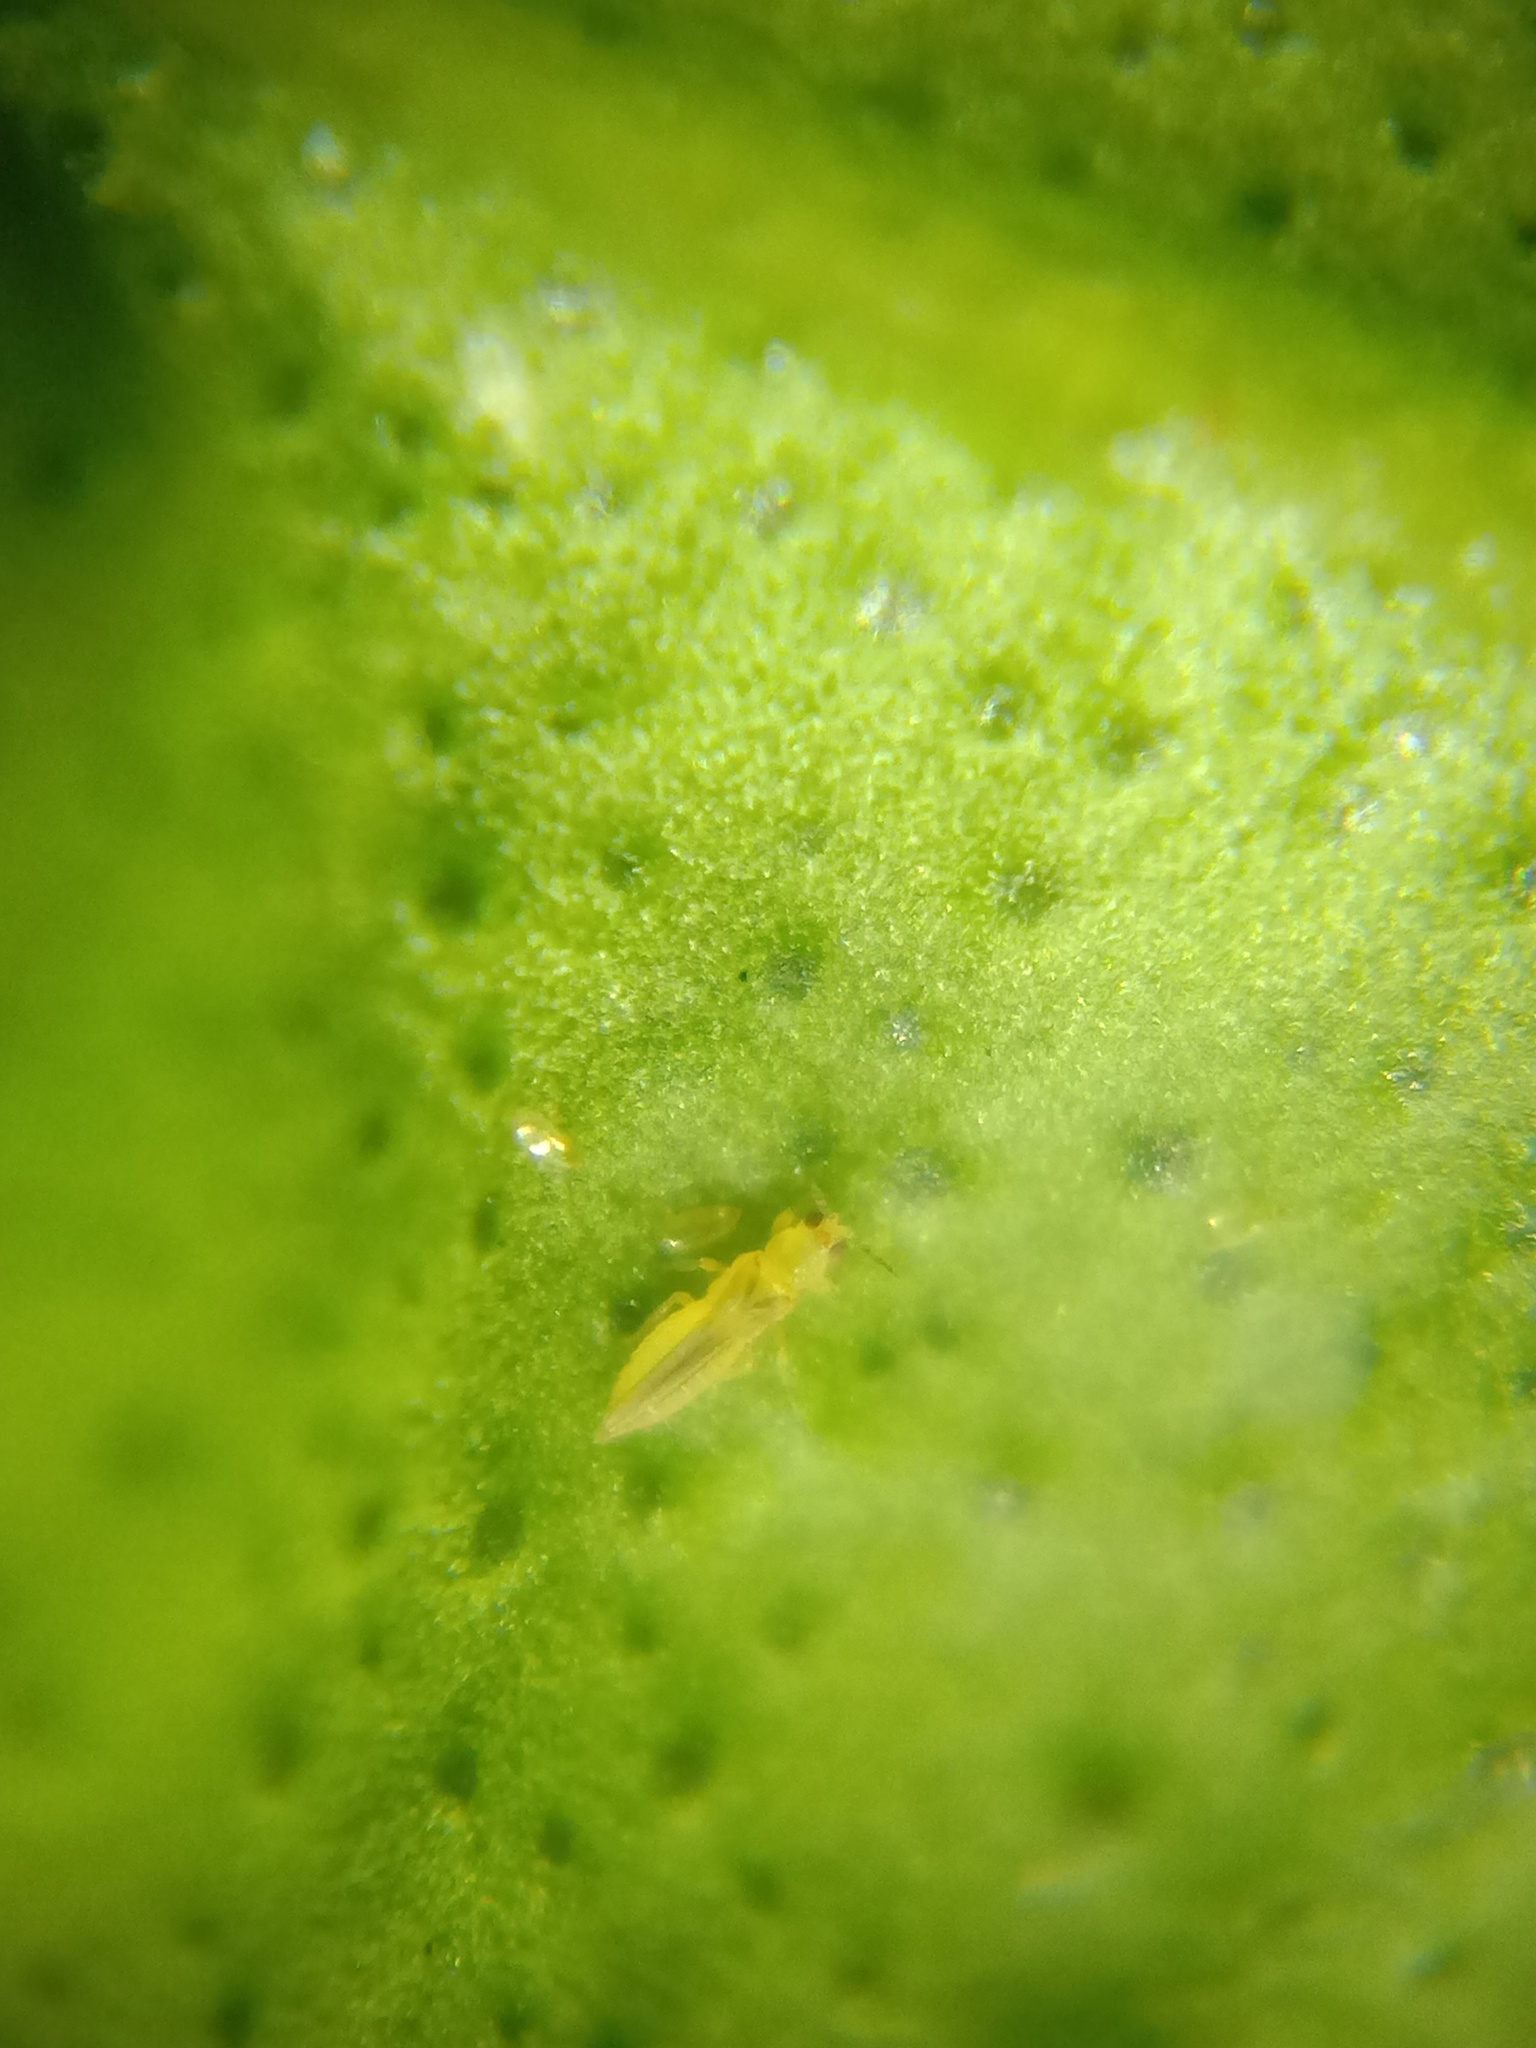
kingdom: Animalia
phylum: Arthropoda
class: Insecta
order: Thysanoptera
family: Thripidae
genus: Scirtothrips
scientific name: Scirtothrips dorsalis
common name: Thrips
